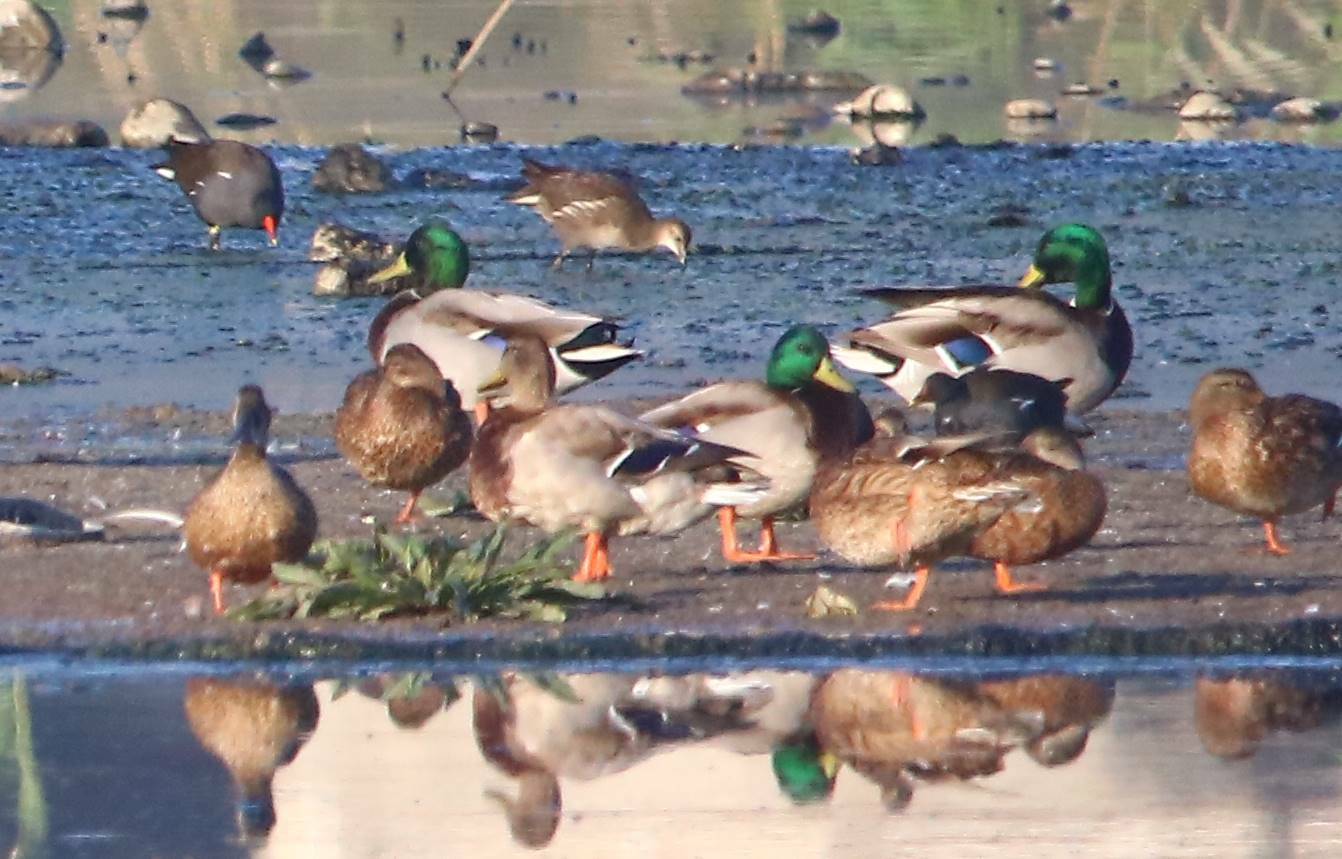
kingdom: Animalia
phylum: Chordata
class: Aves
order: Anseriformes
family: Anatidae
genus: Anas
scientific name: Anas platyrhynchos
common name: Mallard
